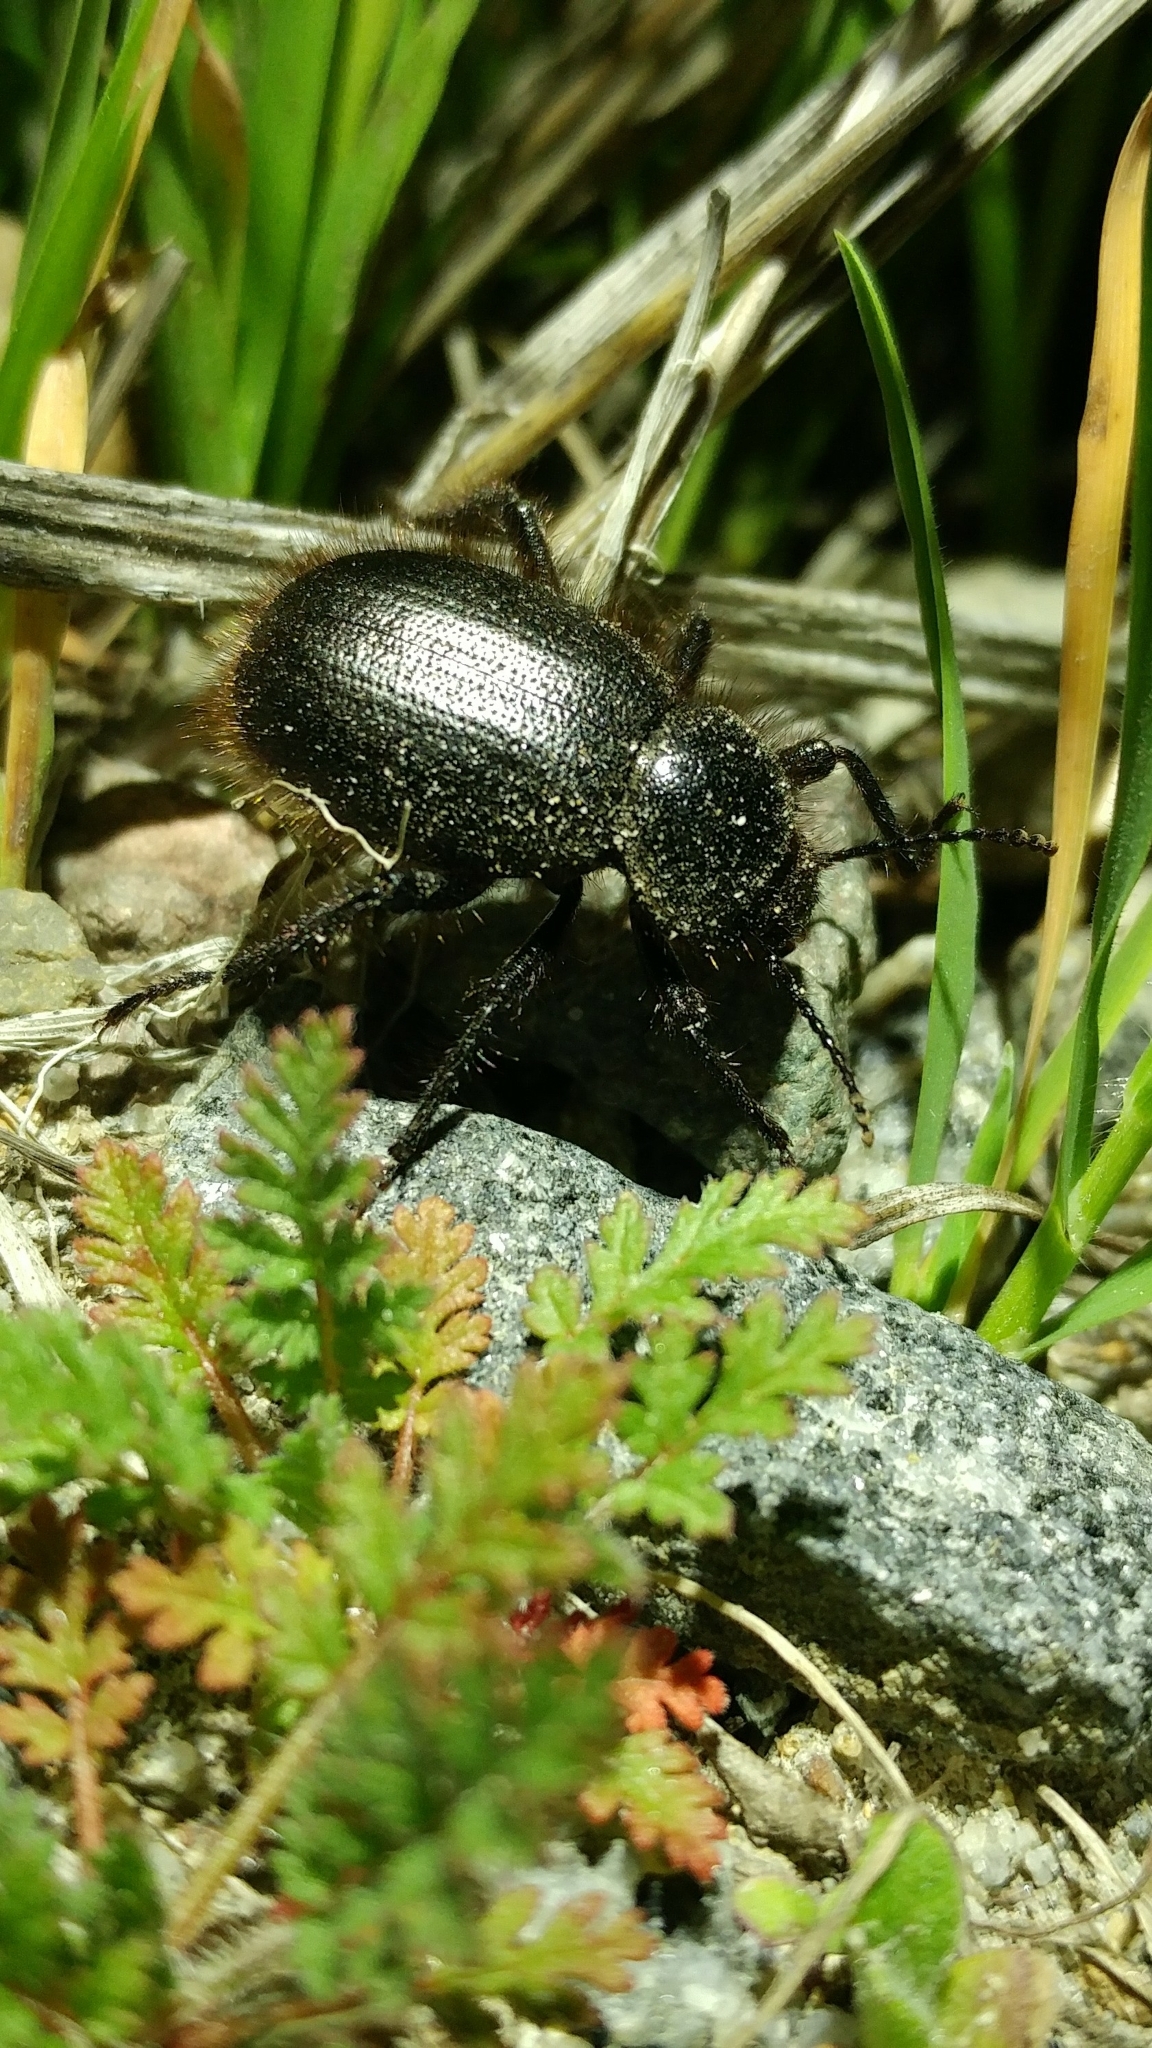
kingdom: Animalia
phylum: Arthropoda
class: Insecta
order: Coleoptera
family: Tenebrionidae
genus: Eleodes
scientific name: Eleodes osculans
